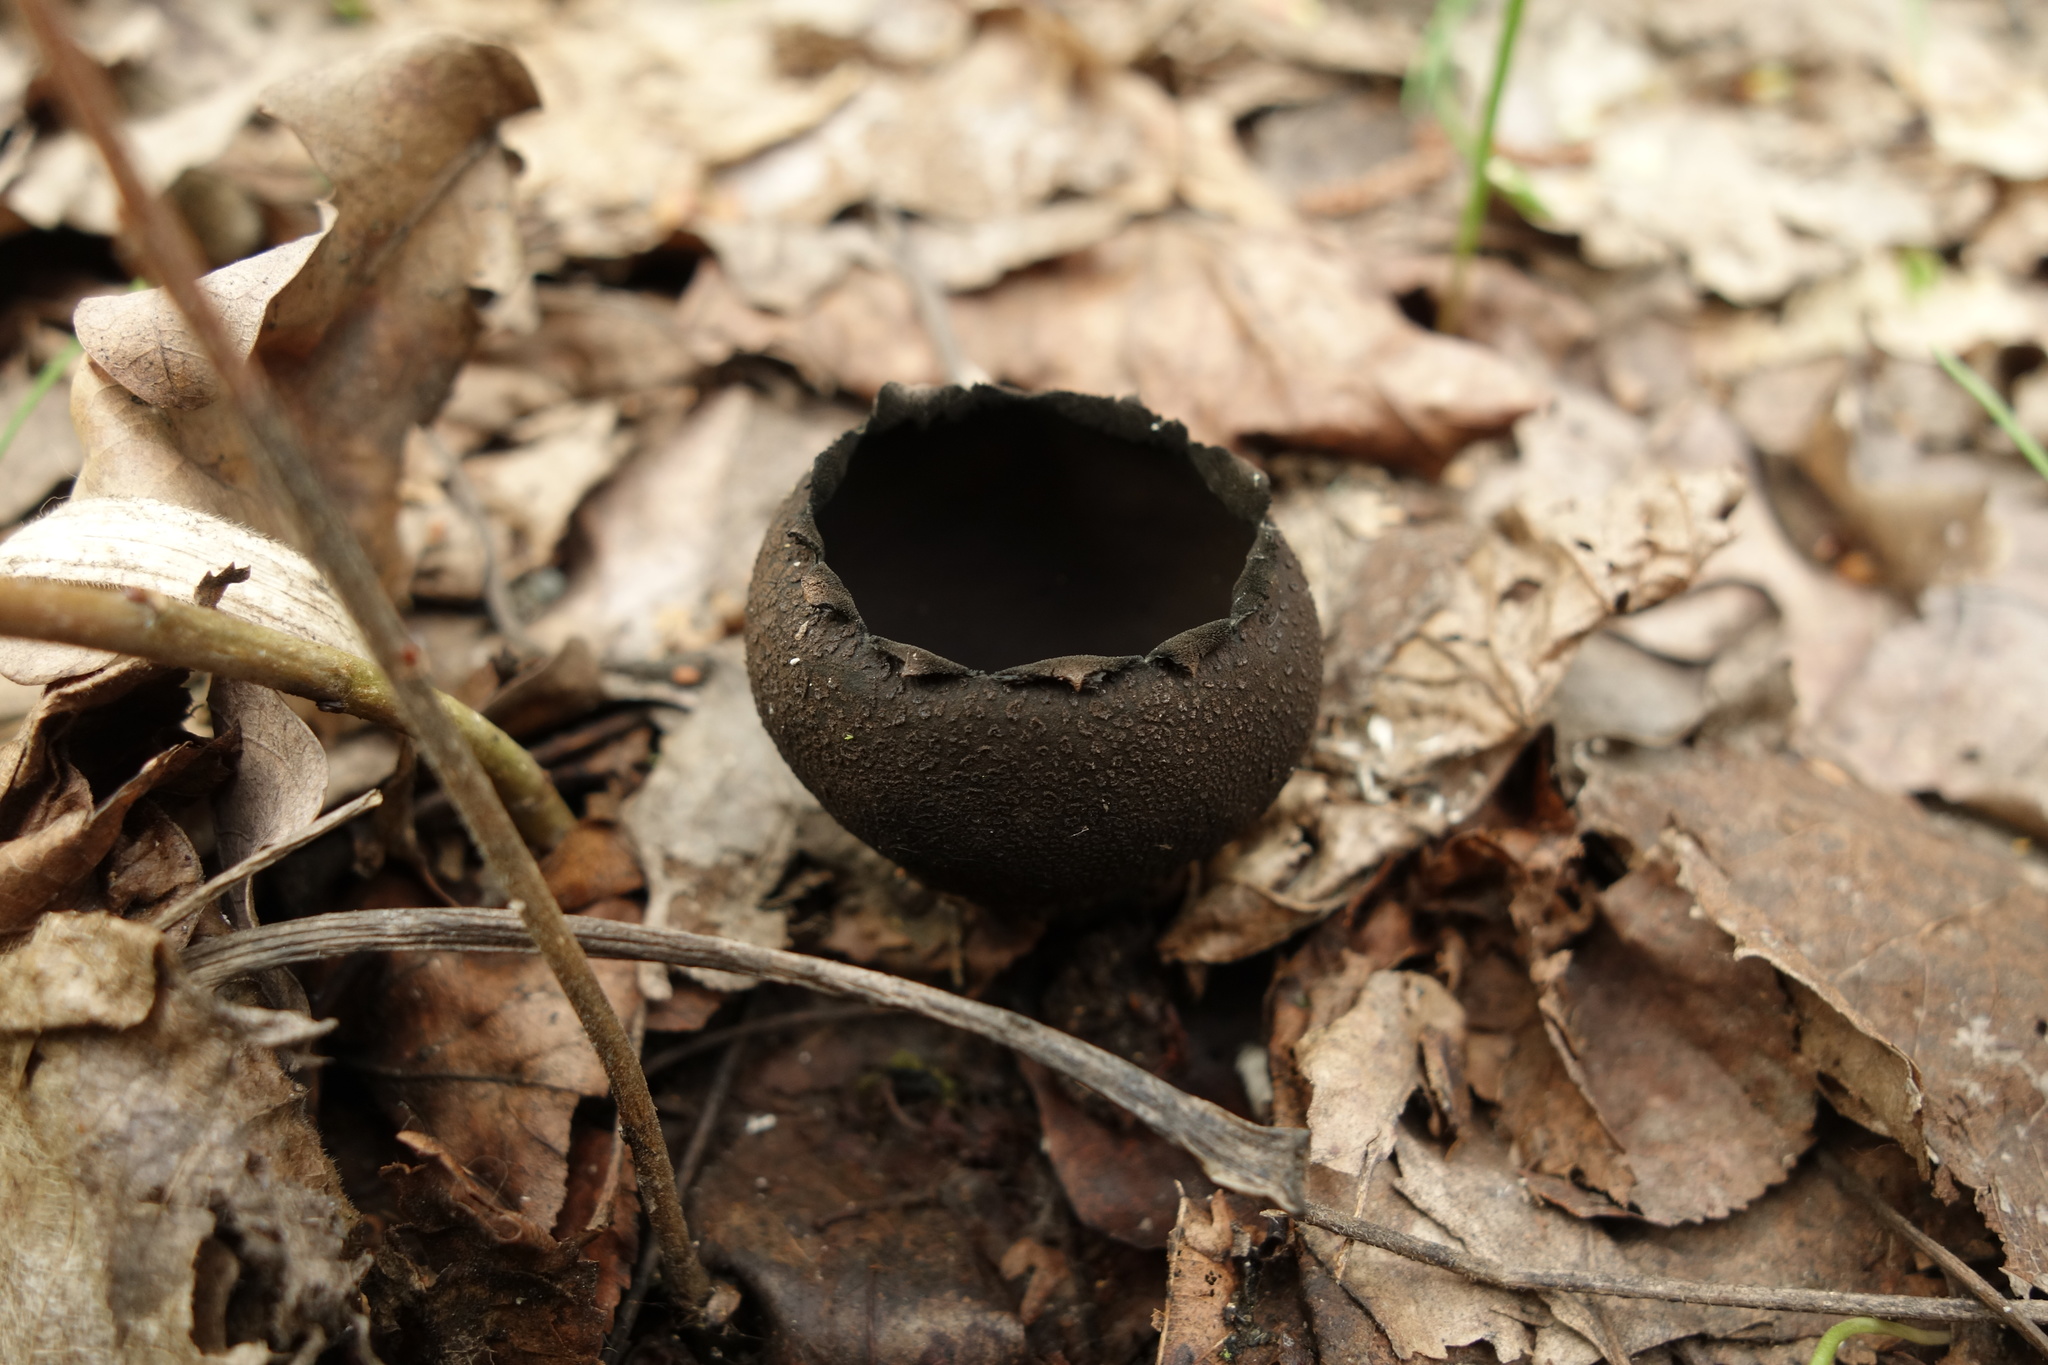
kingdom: Fungi
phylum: Ascomycota
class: Pezizomycetes
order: Pezizales
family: Sarcosomataceae
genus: Urnula
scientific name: Urnula craterium
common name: Devil's urn
